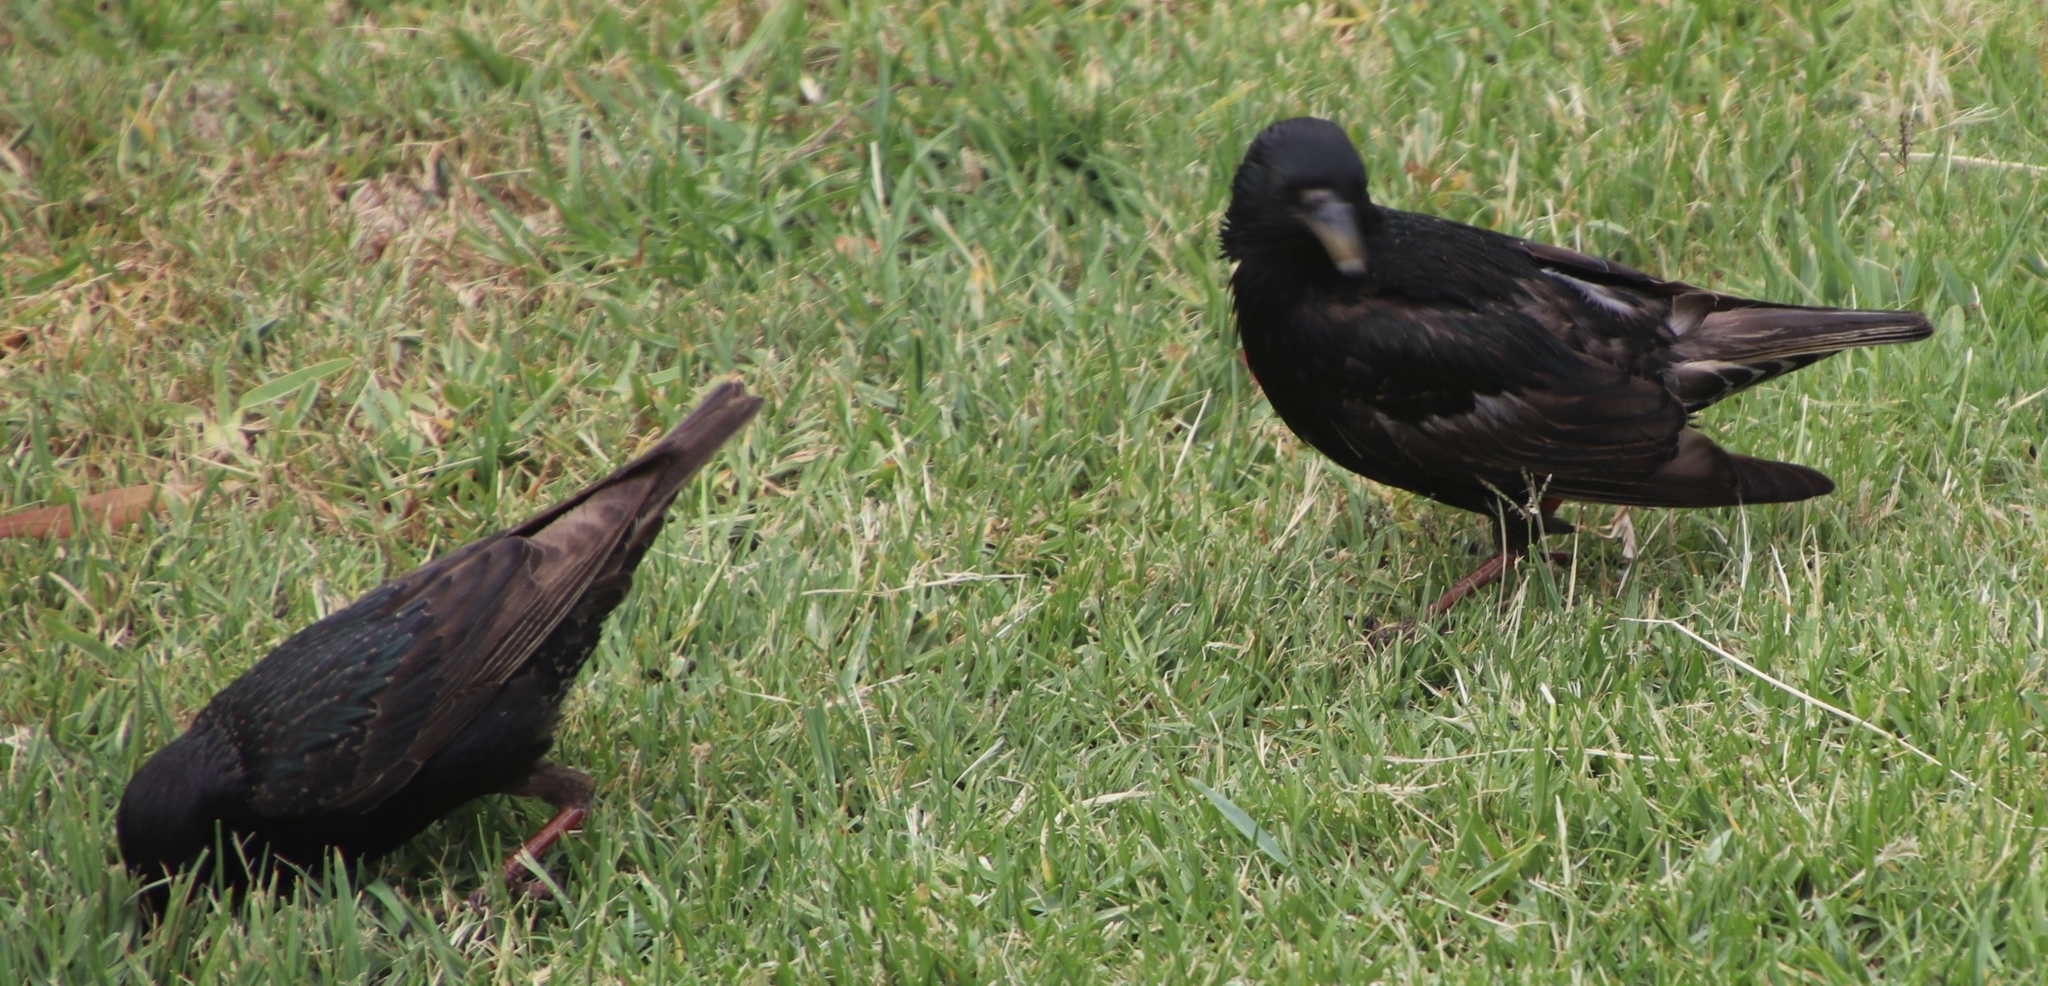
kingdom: Animalia
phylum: Chordata
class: Aves
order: Passeriformes
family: Sturnidae
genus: Sturnus
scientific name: Sturnus vulgaris
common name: Common starling
